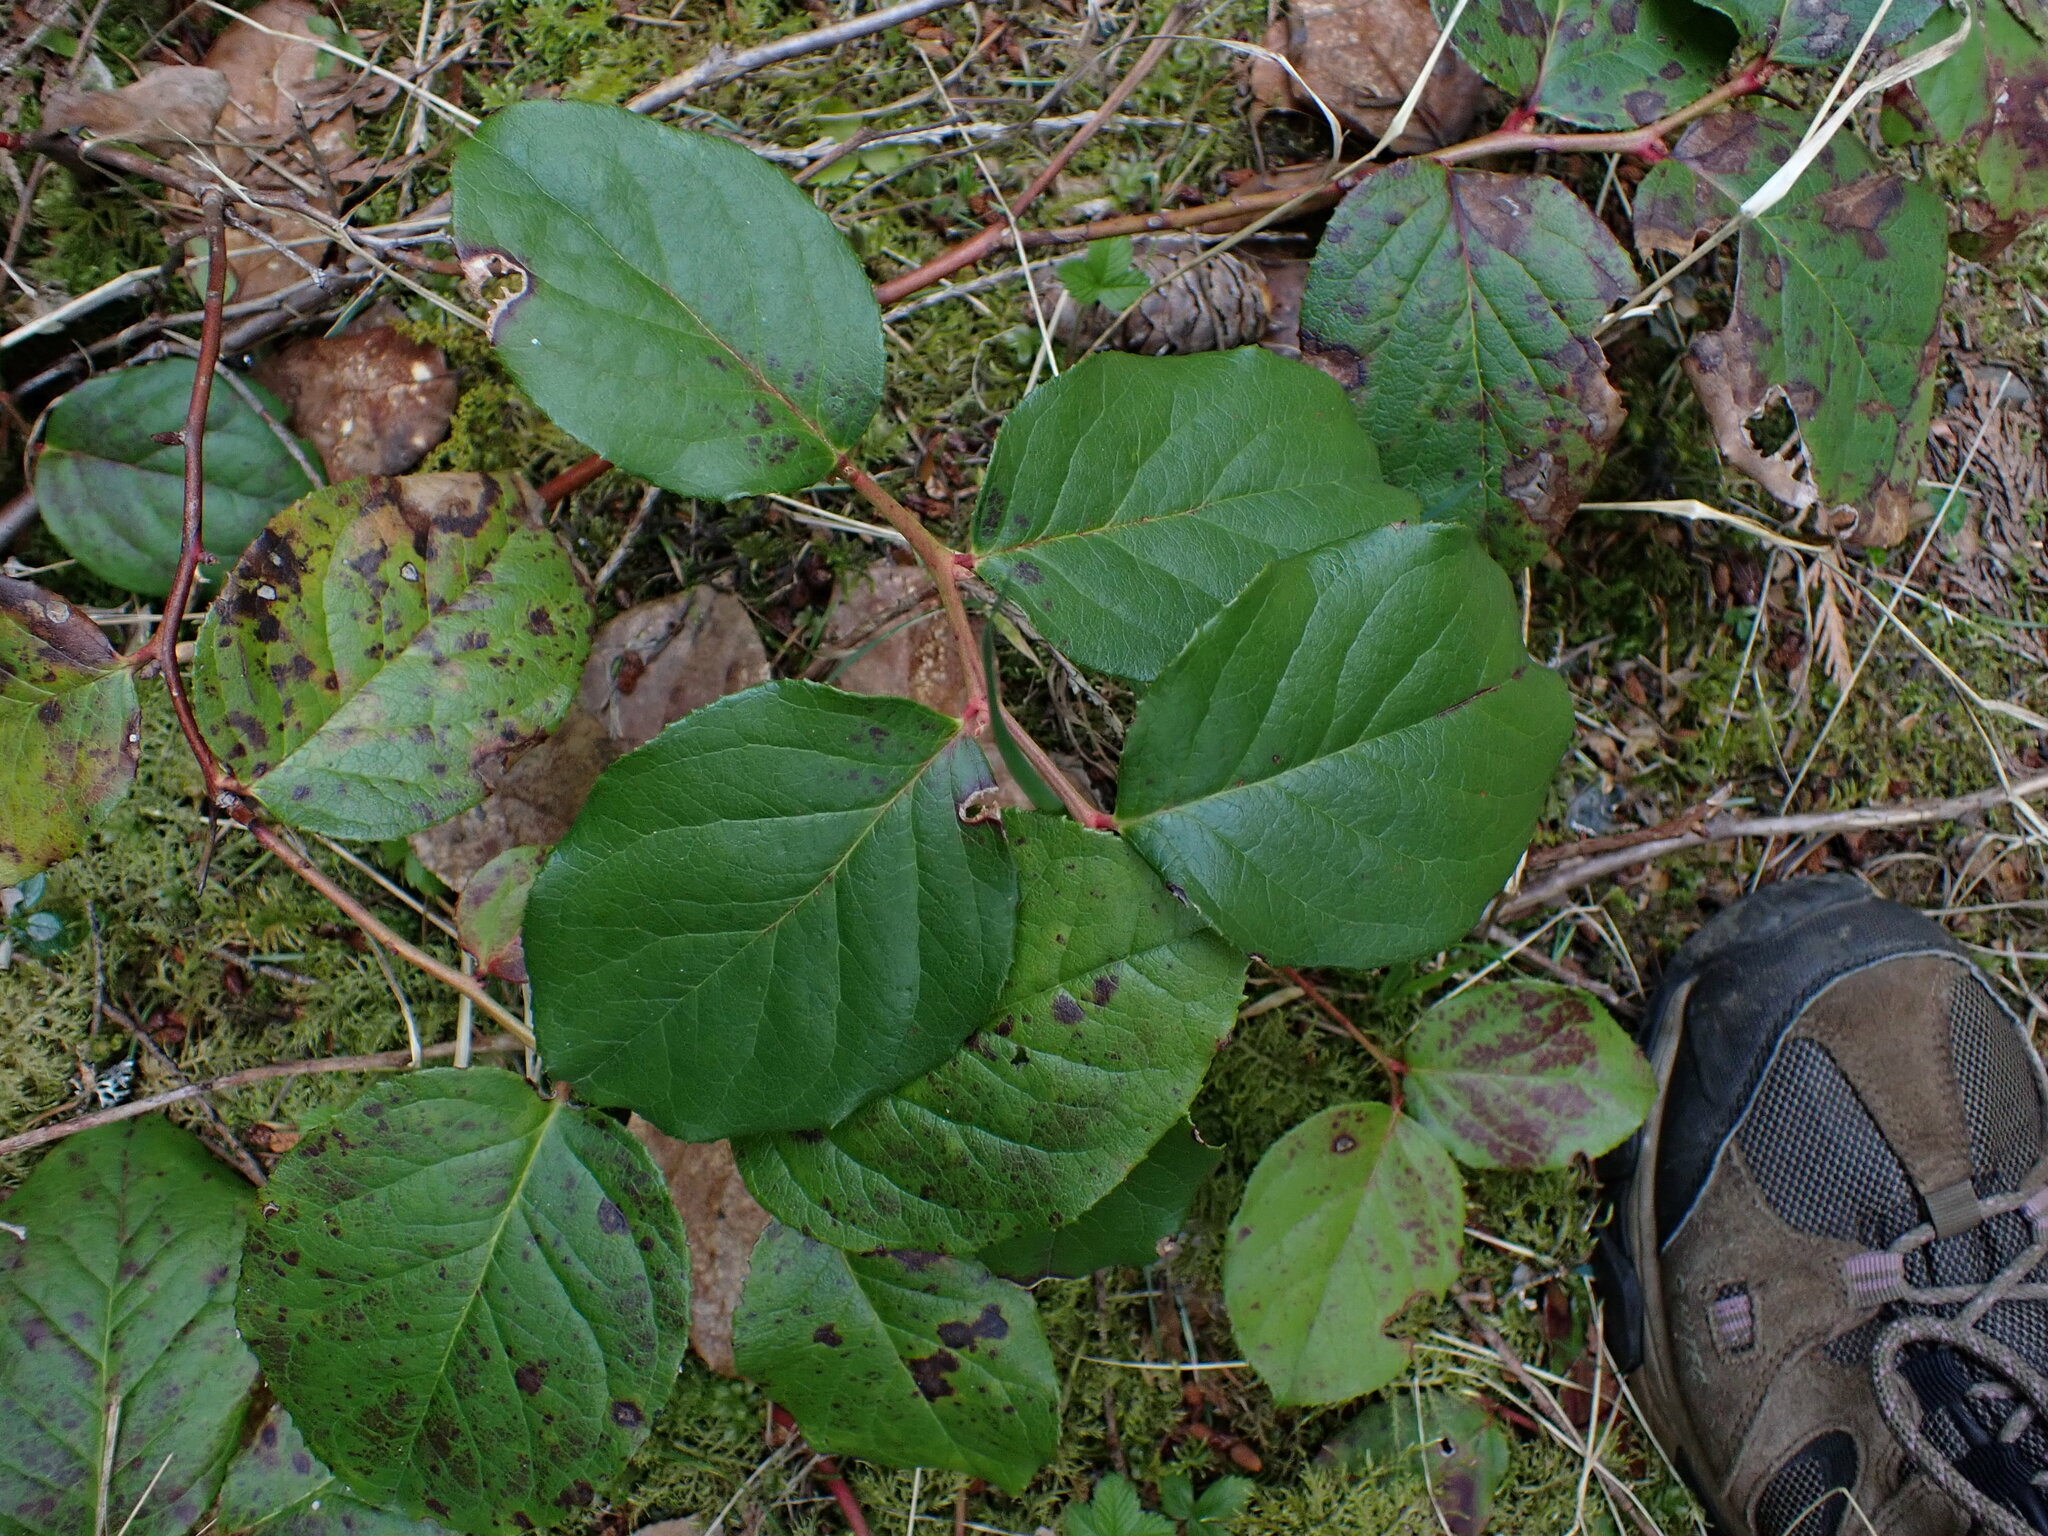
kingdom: Plantae
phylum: Tracheophyta
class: Magnoliopsida
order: Ericales
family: Ericaceae
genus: Gaultheria
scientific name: Gaultheria shallon
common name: Shallon
